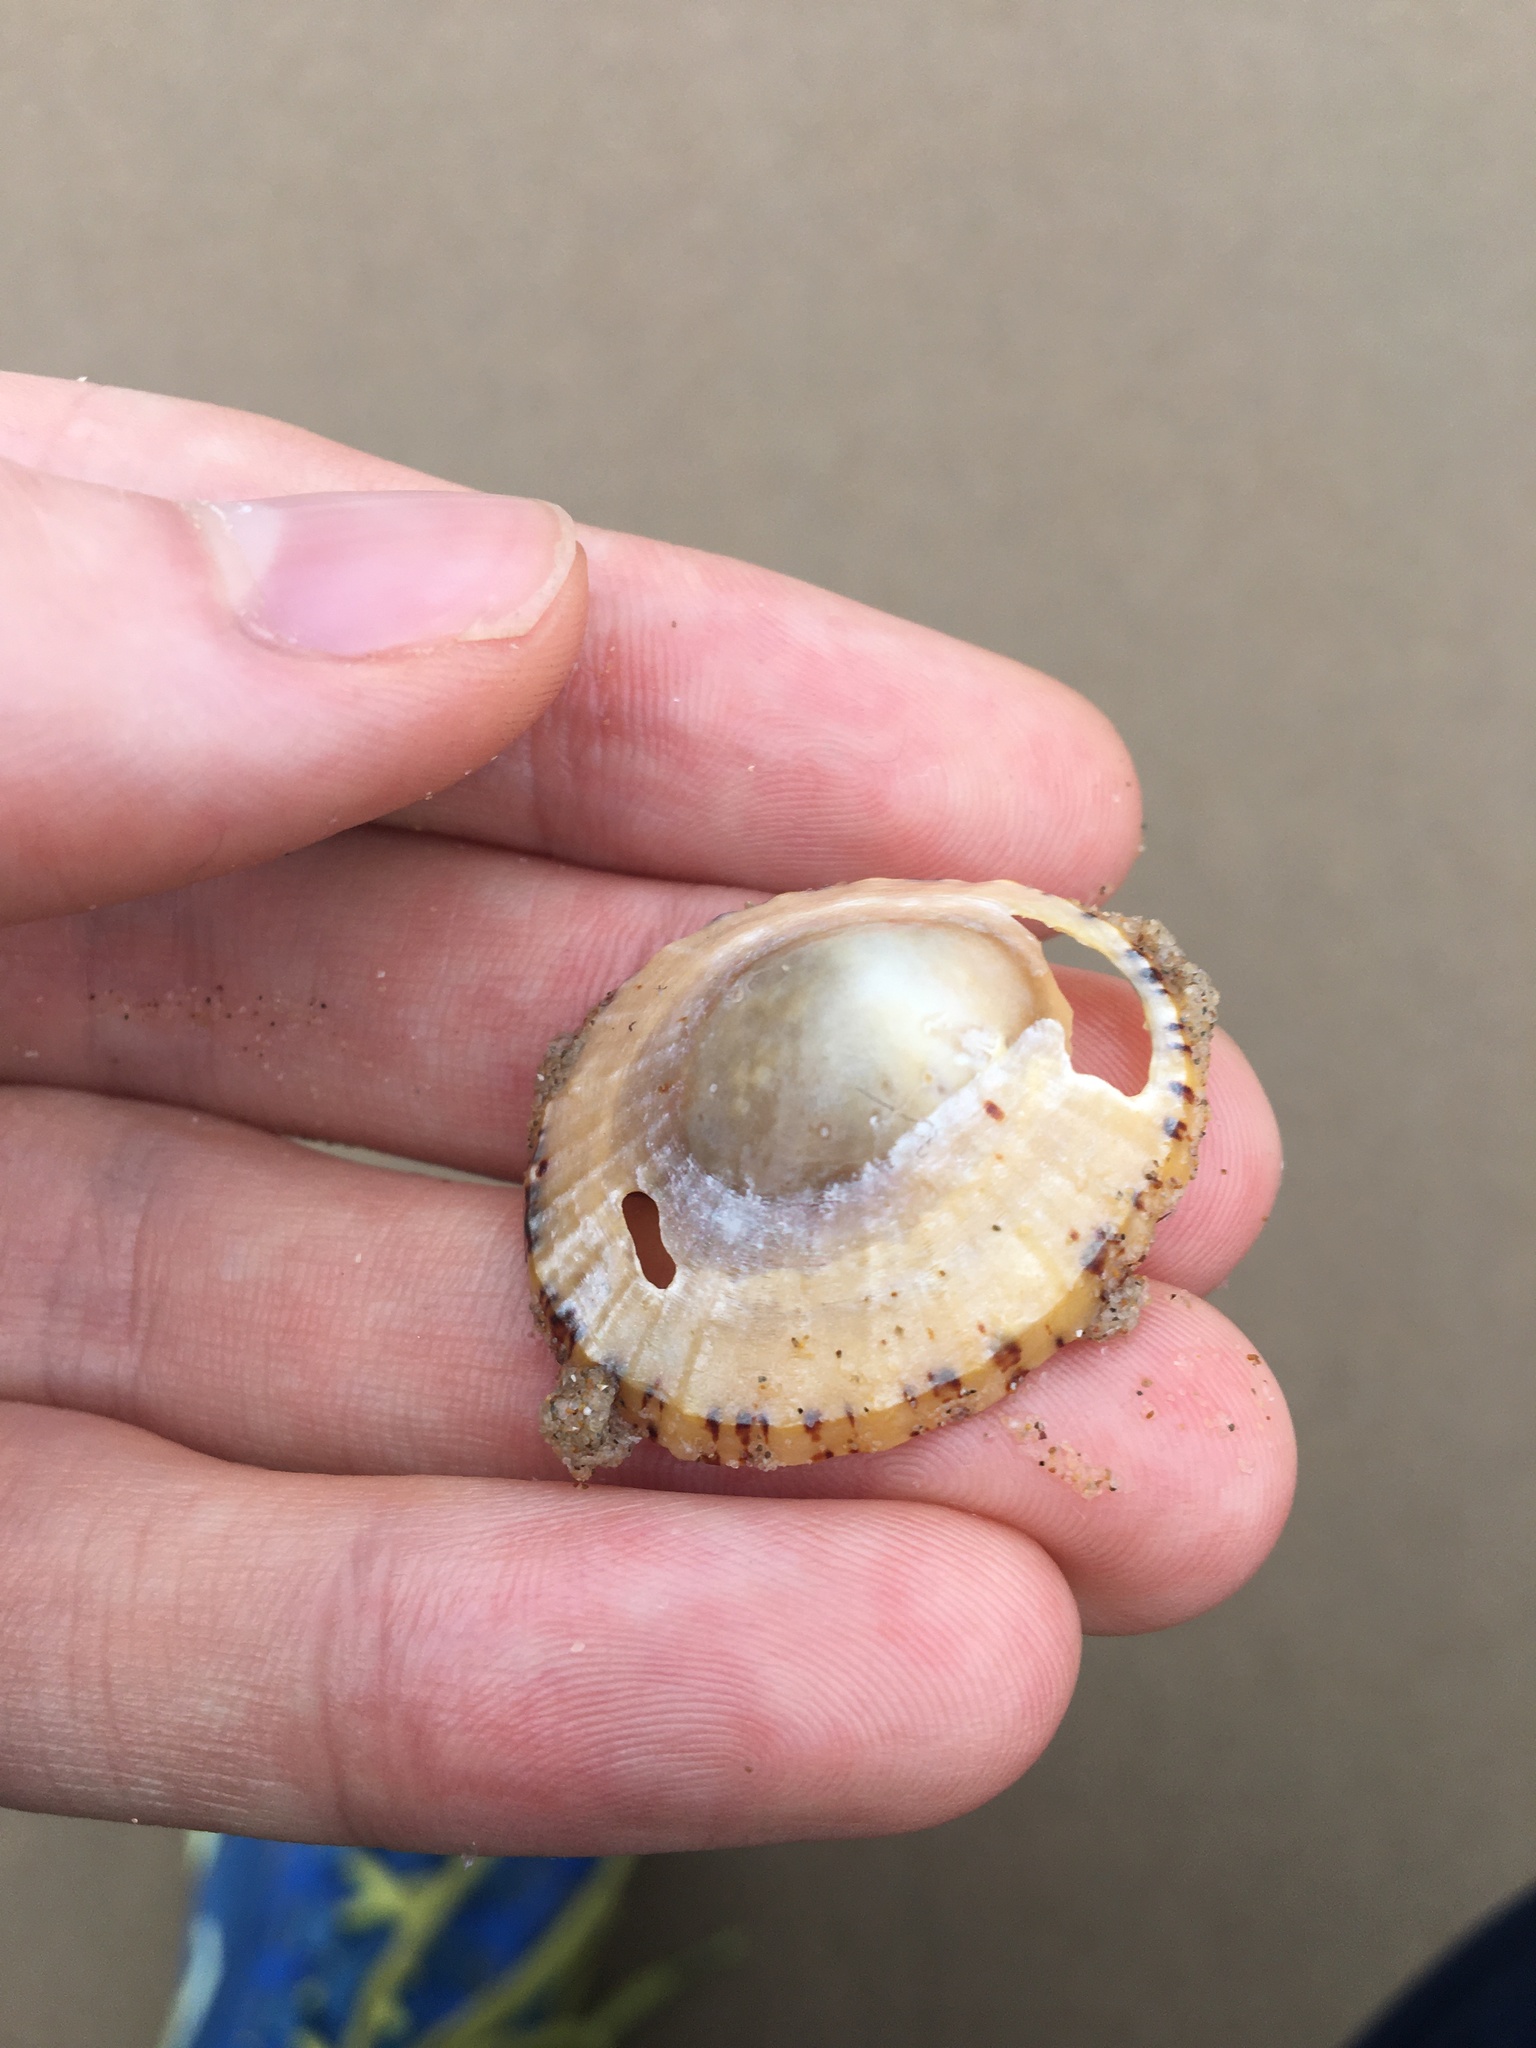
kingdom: Animalia
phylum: Mollusca
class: Gastropoda
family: Nacellidae
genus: Cellana
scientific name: Cellana tramoserica
